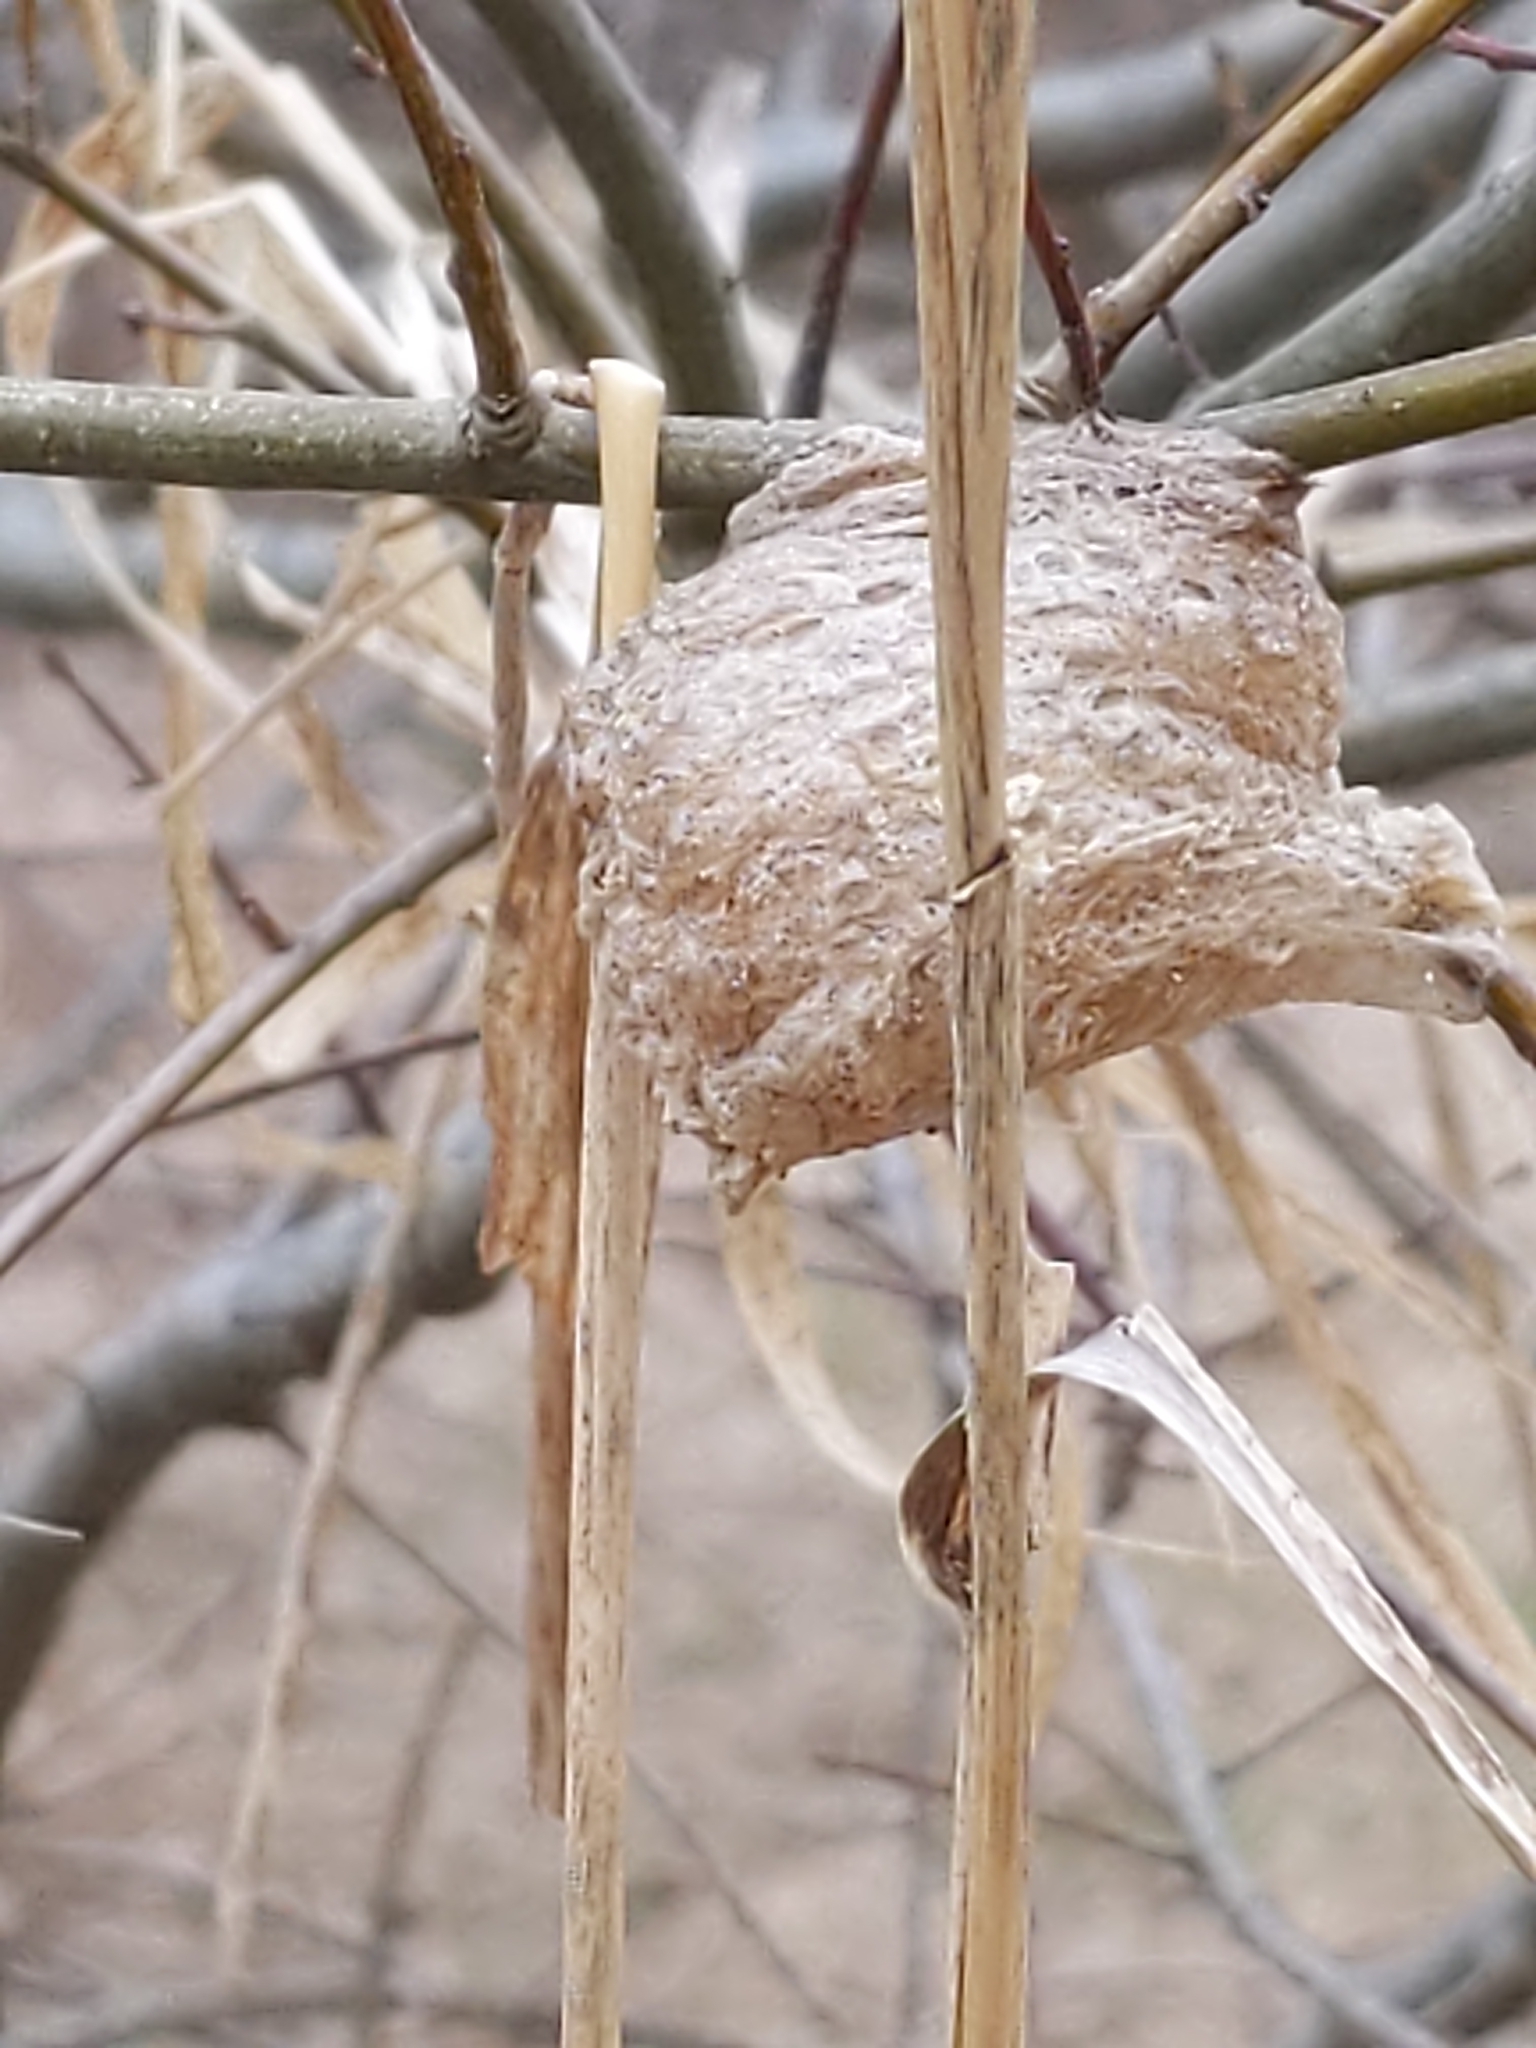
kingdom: Animalia
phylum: Arthropoda
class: Insecta
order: Mantodea
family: Mantidae
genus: Tenodera
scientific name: Tenodera sinensis
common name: Chinese mantis
